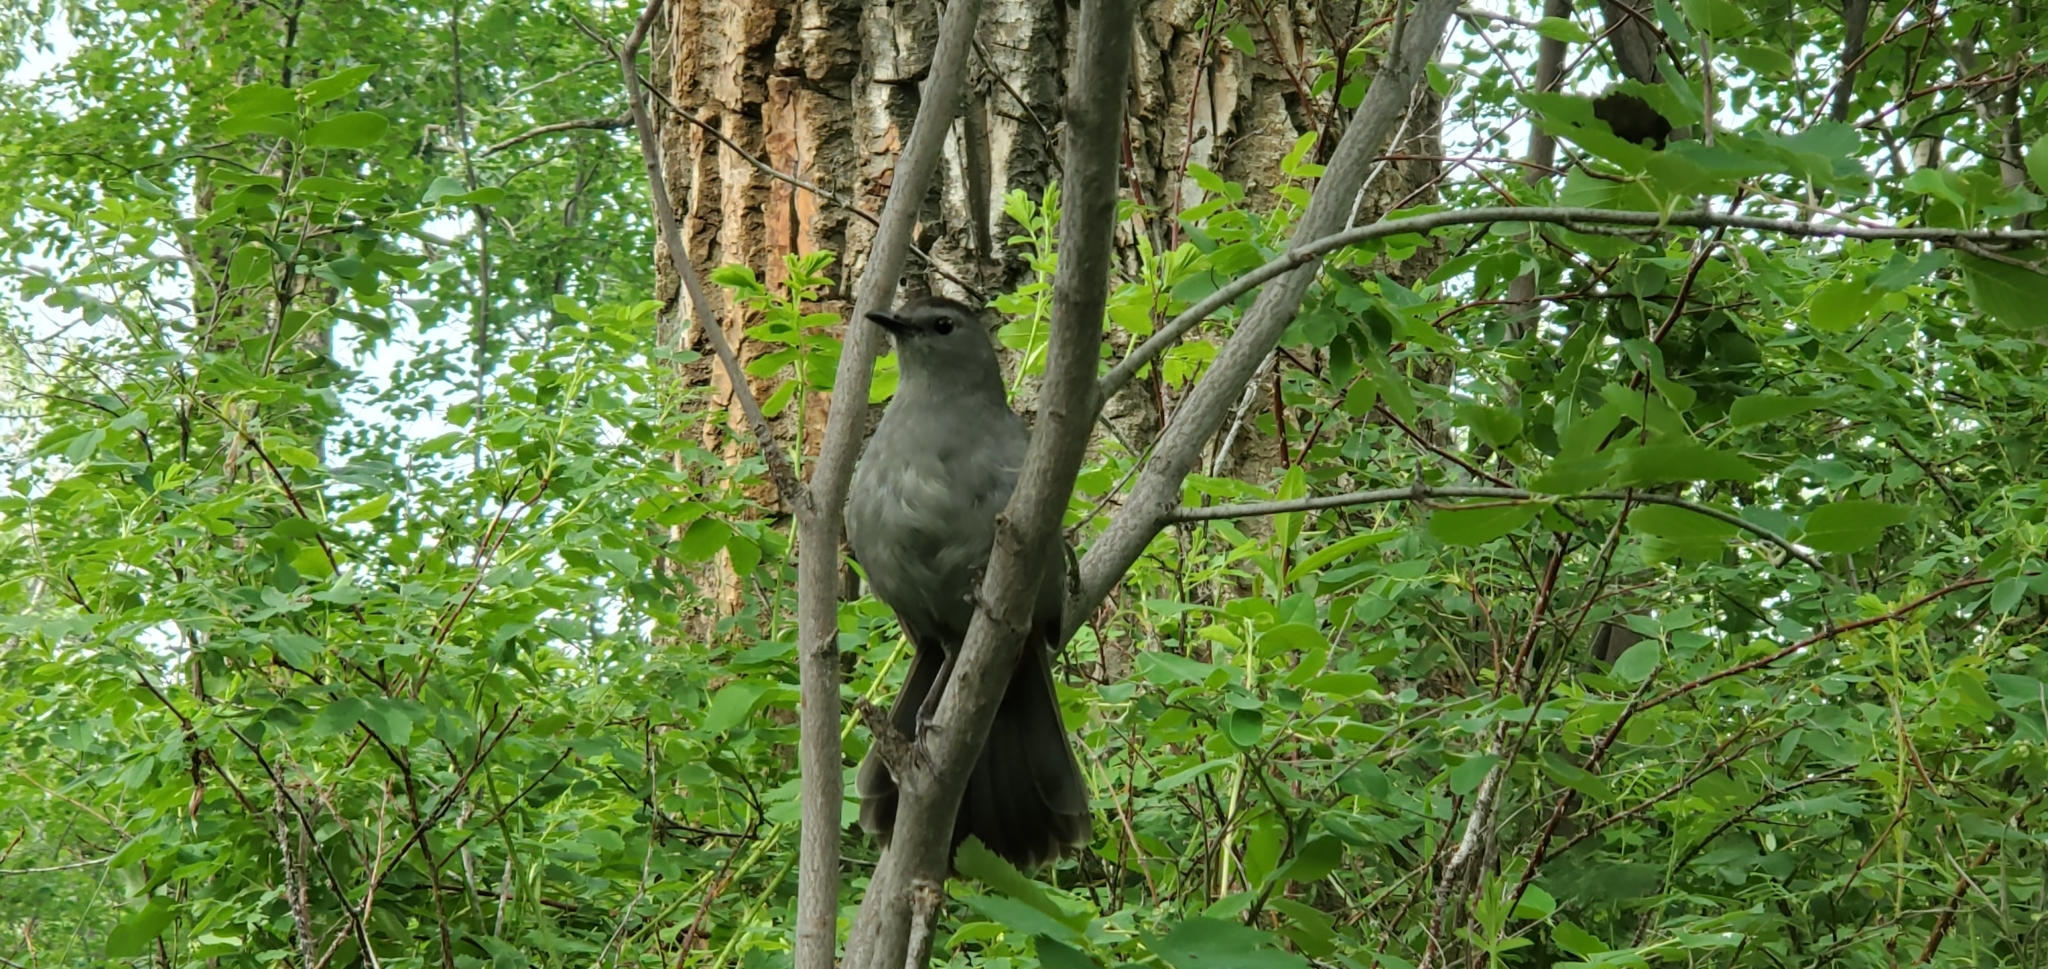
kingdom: Animalia
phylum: Chordata
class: Aves
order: Passeriformes
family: Mimidae
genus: Dumetella
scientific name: Dumetella carolinensis
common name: Gray catbird
